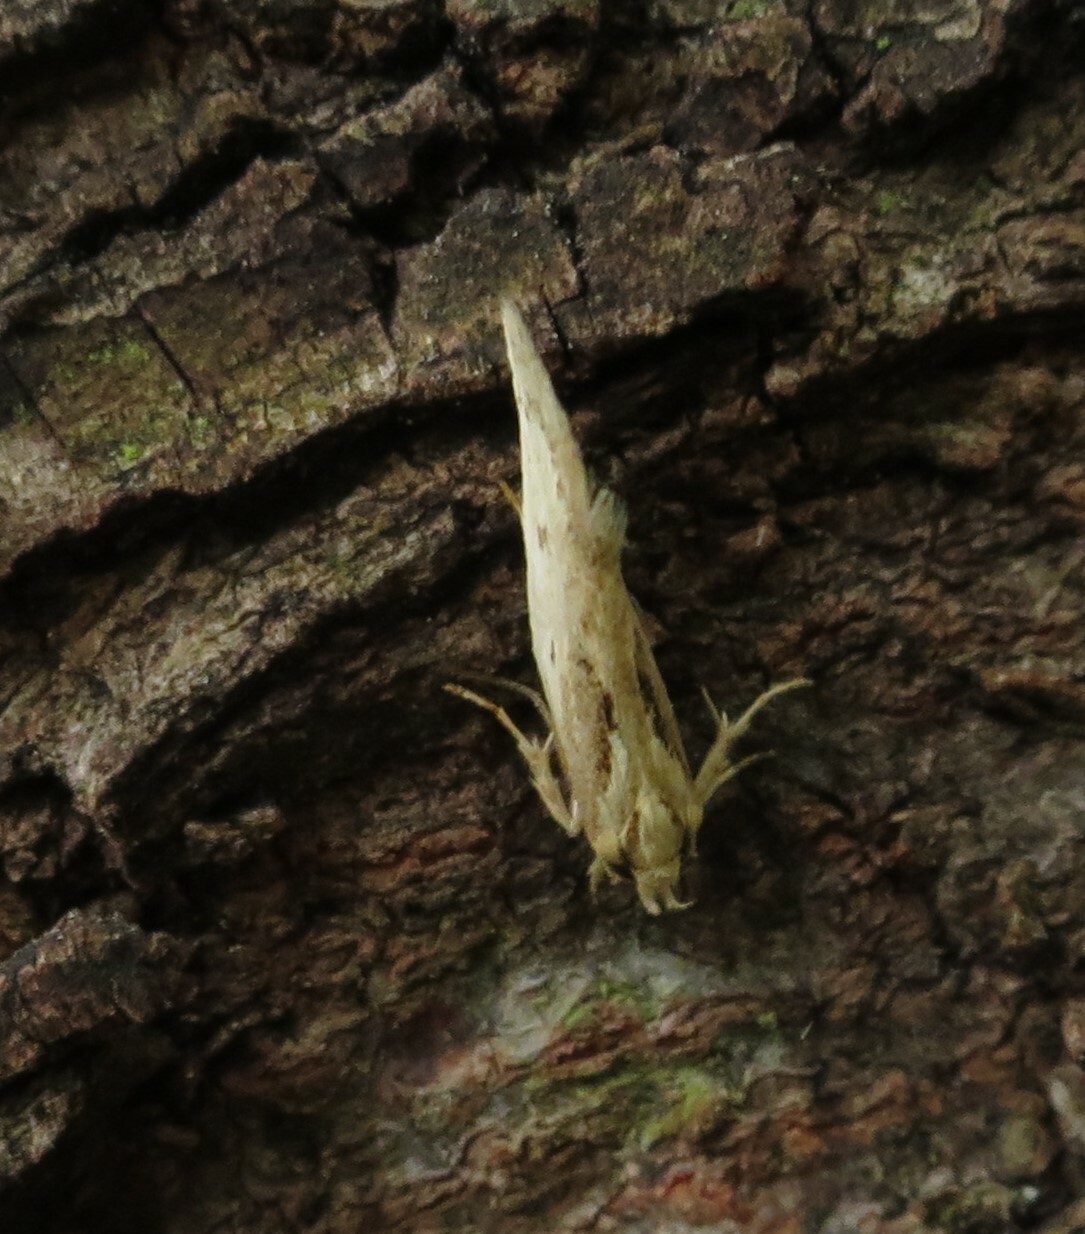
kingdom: Animalia
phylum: Arthropoda
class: Insecta
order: Lepidoptera
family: Oecophoridae
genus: Tingena
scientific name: Tingena chloradelpha
